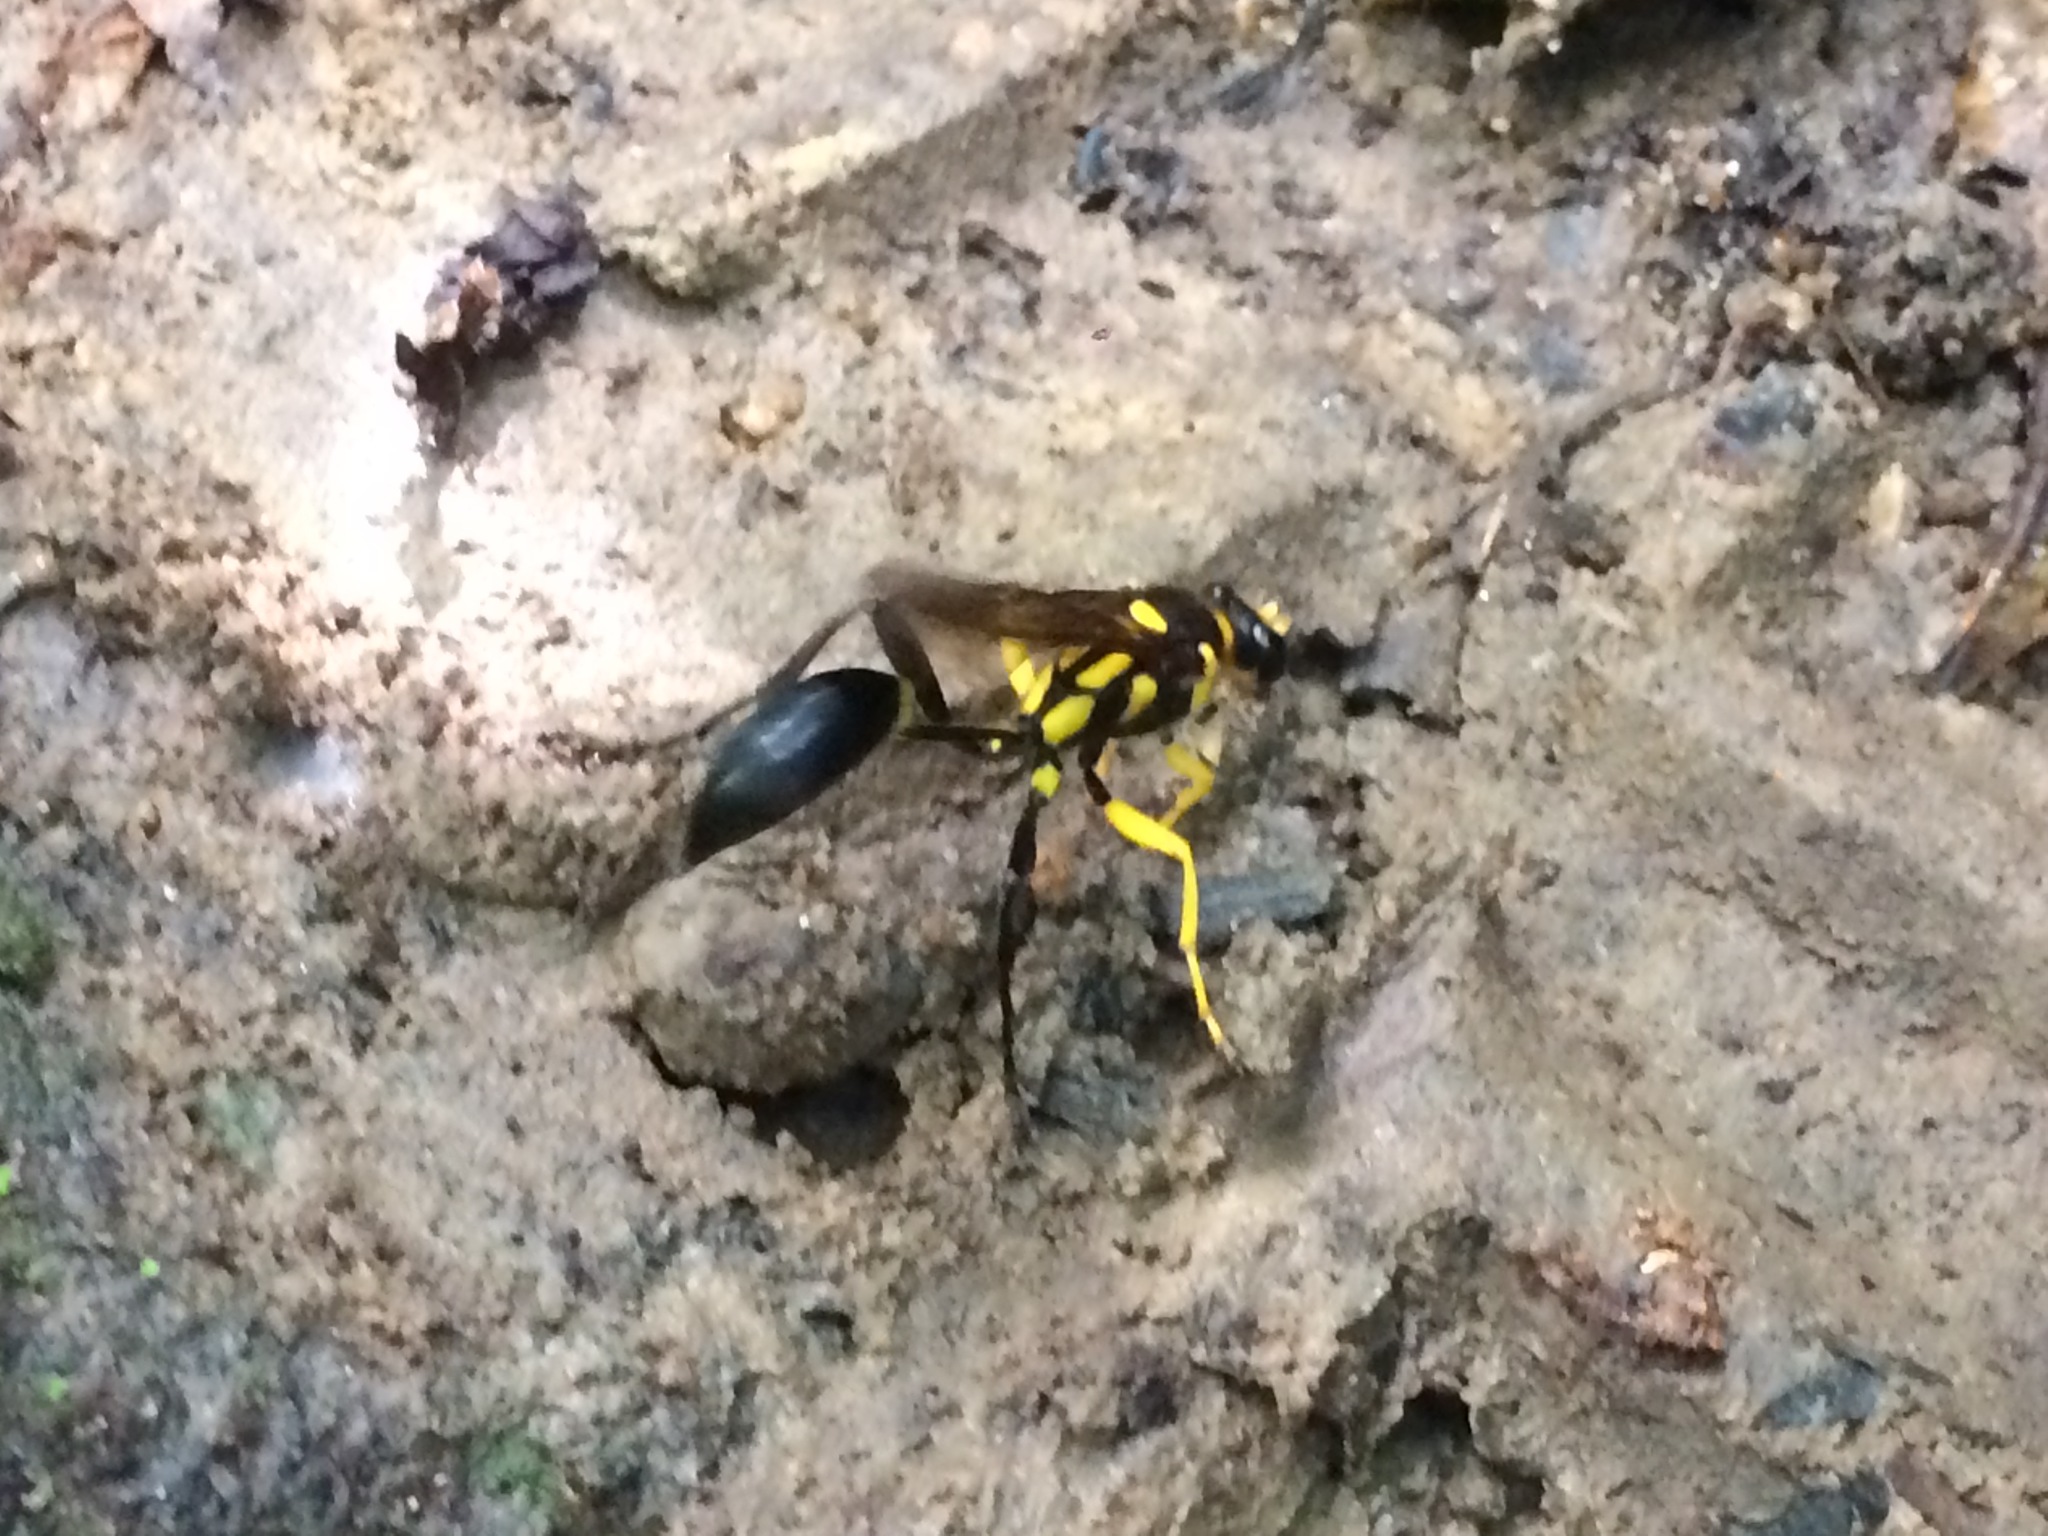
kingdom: Animalia
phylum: Arthropoda
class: Insecta
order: Hymenoptera
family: Sphecidae
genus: Sceliphron
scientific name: Sceliphron fistularium
